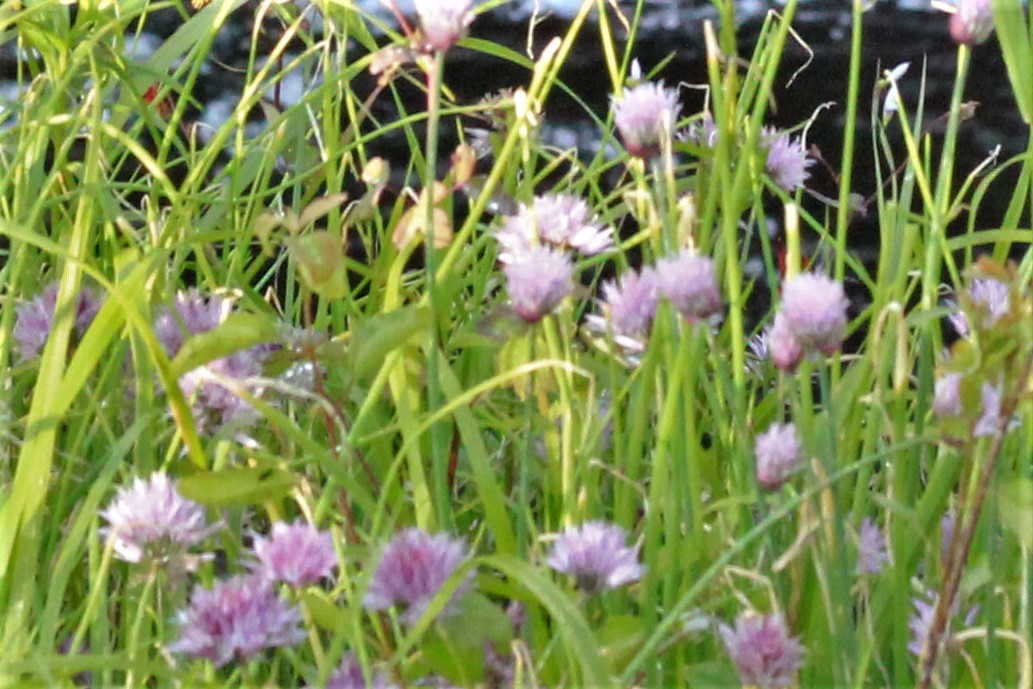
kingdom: Plantae
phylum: Tracheophyta
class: Liliopsida
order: Asparagales
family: Amaryllidaceae
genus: Allium
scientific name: Allium schoenoprasum
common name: Chives
